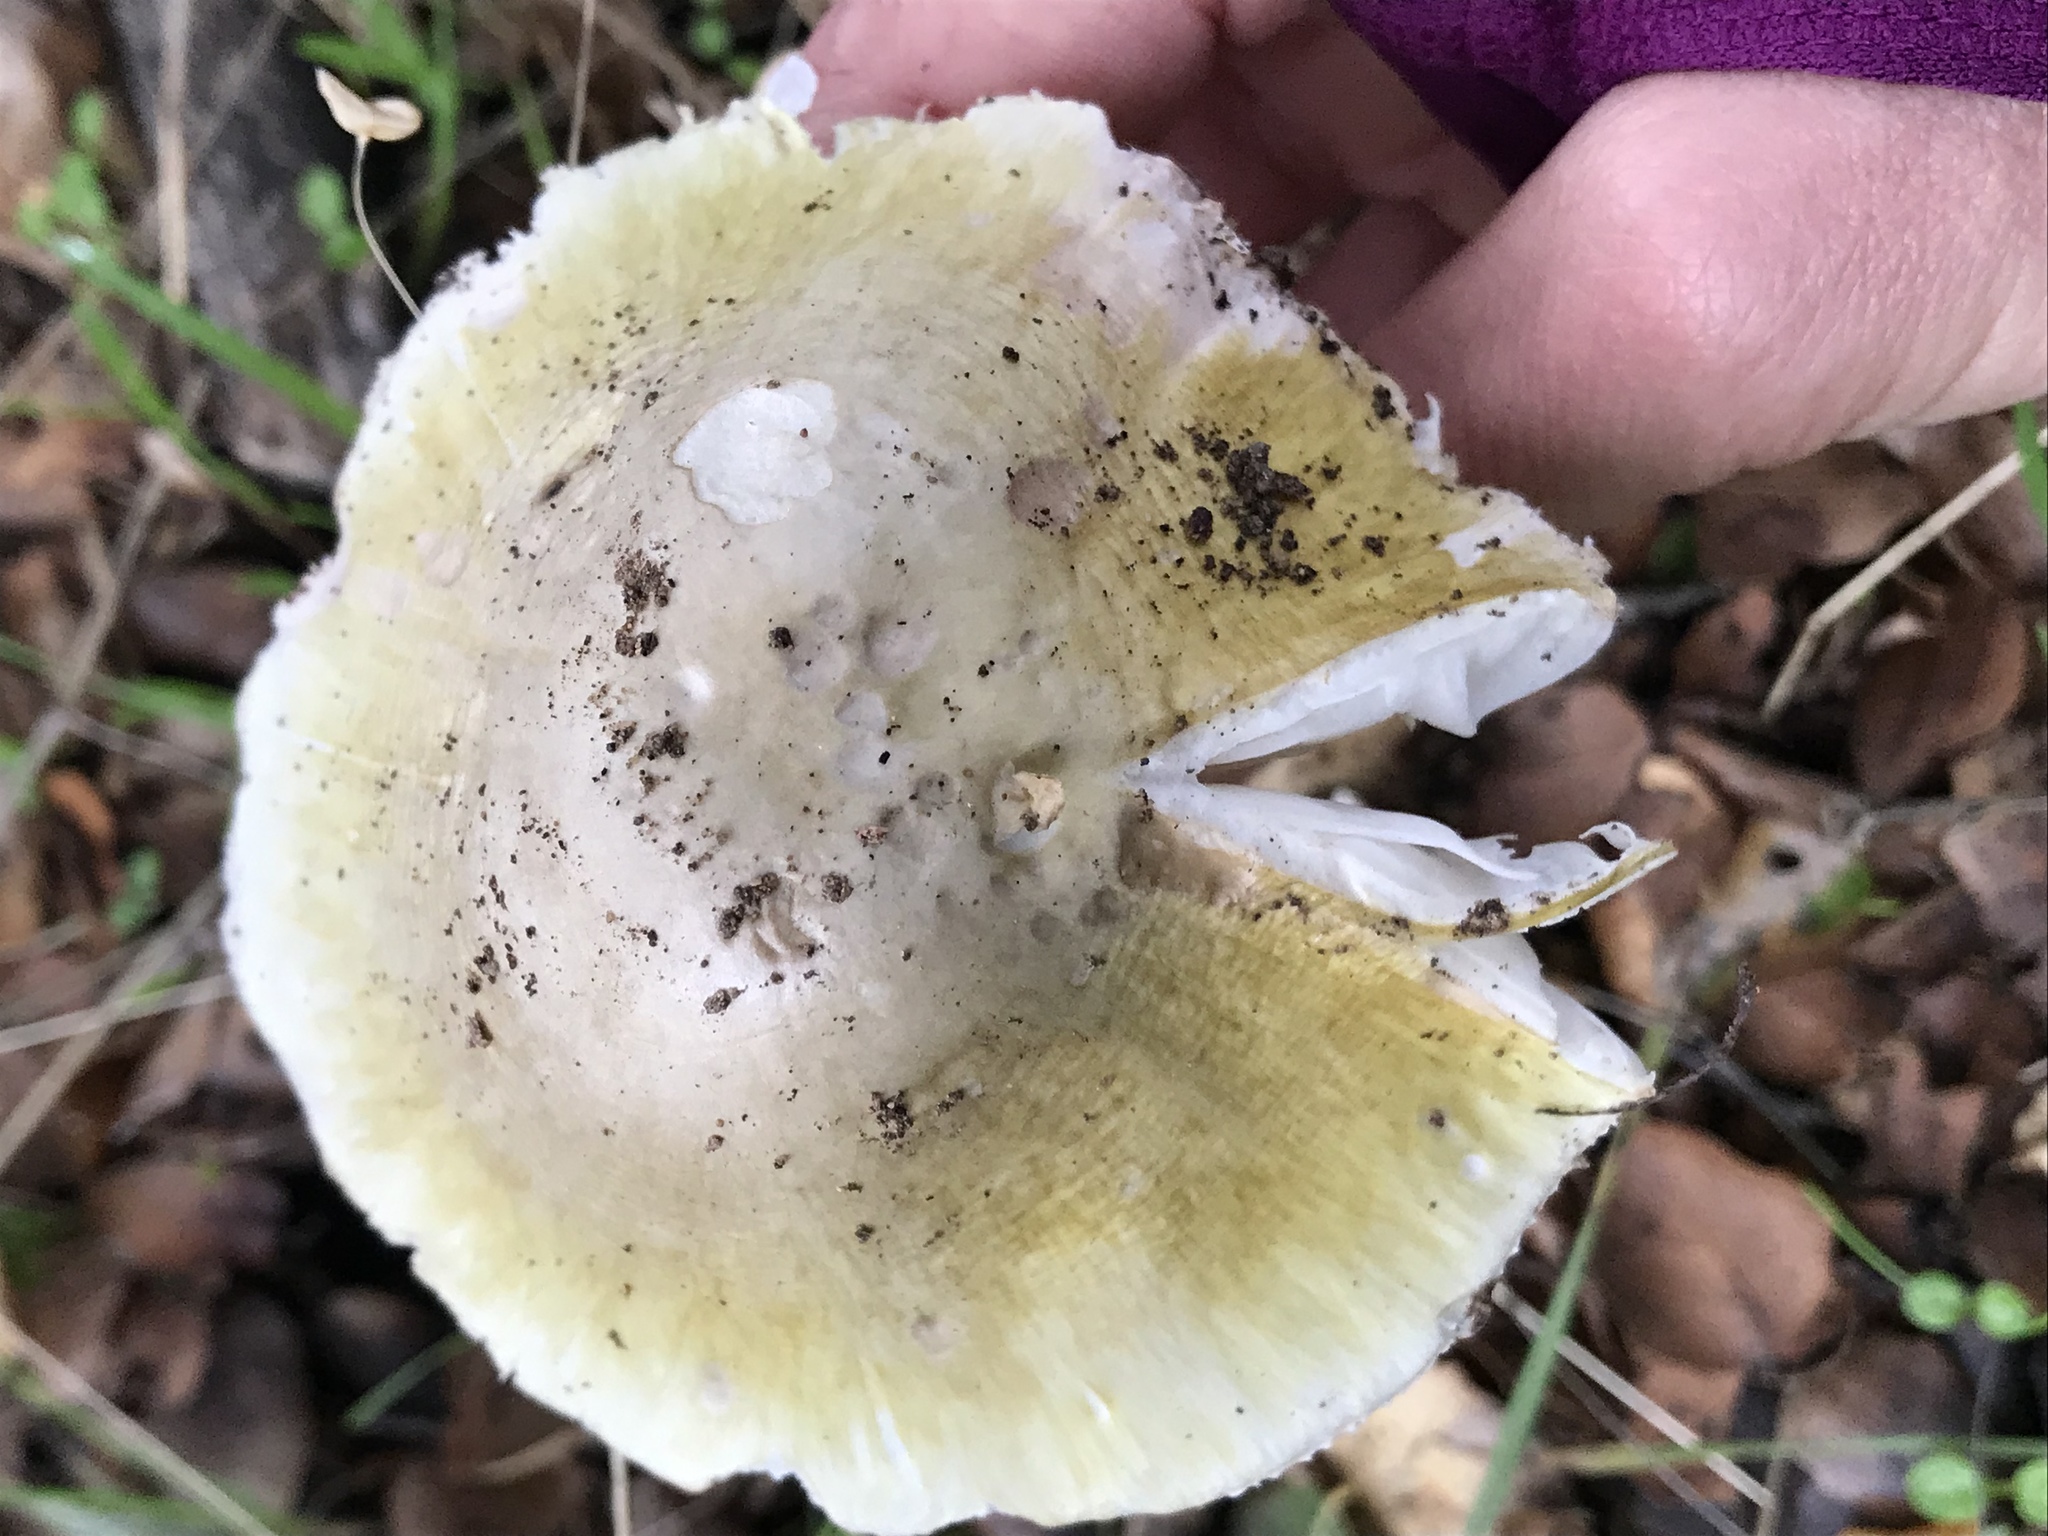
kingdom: Fungi
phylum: Basidiomycota
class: Agaricomycetes
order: Agaricales
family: Amanitaceae
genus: Amanita
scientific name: Amanita phalloides
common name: Death cap
